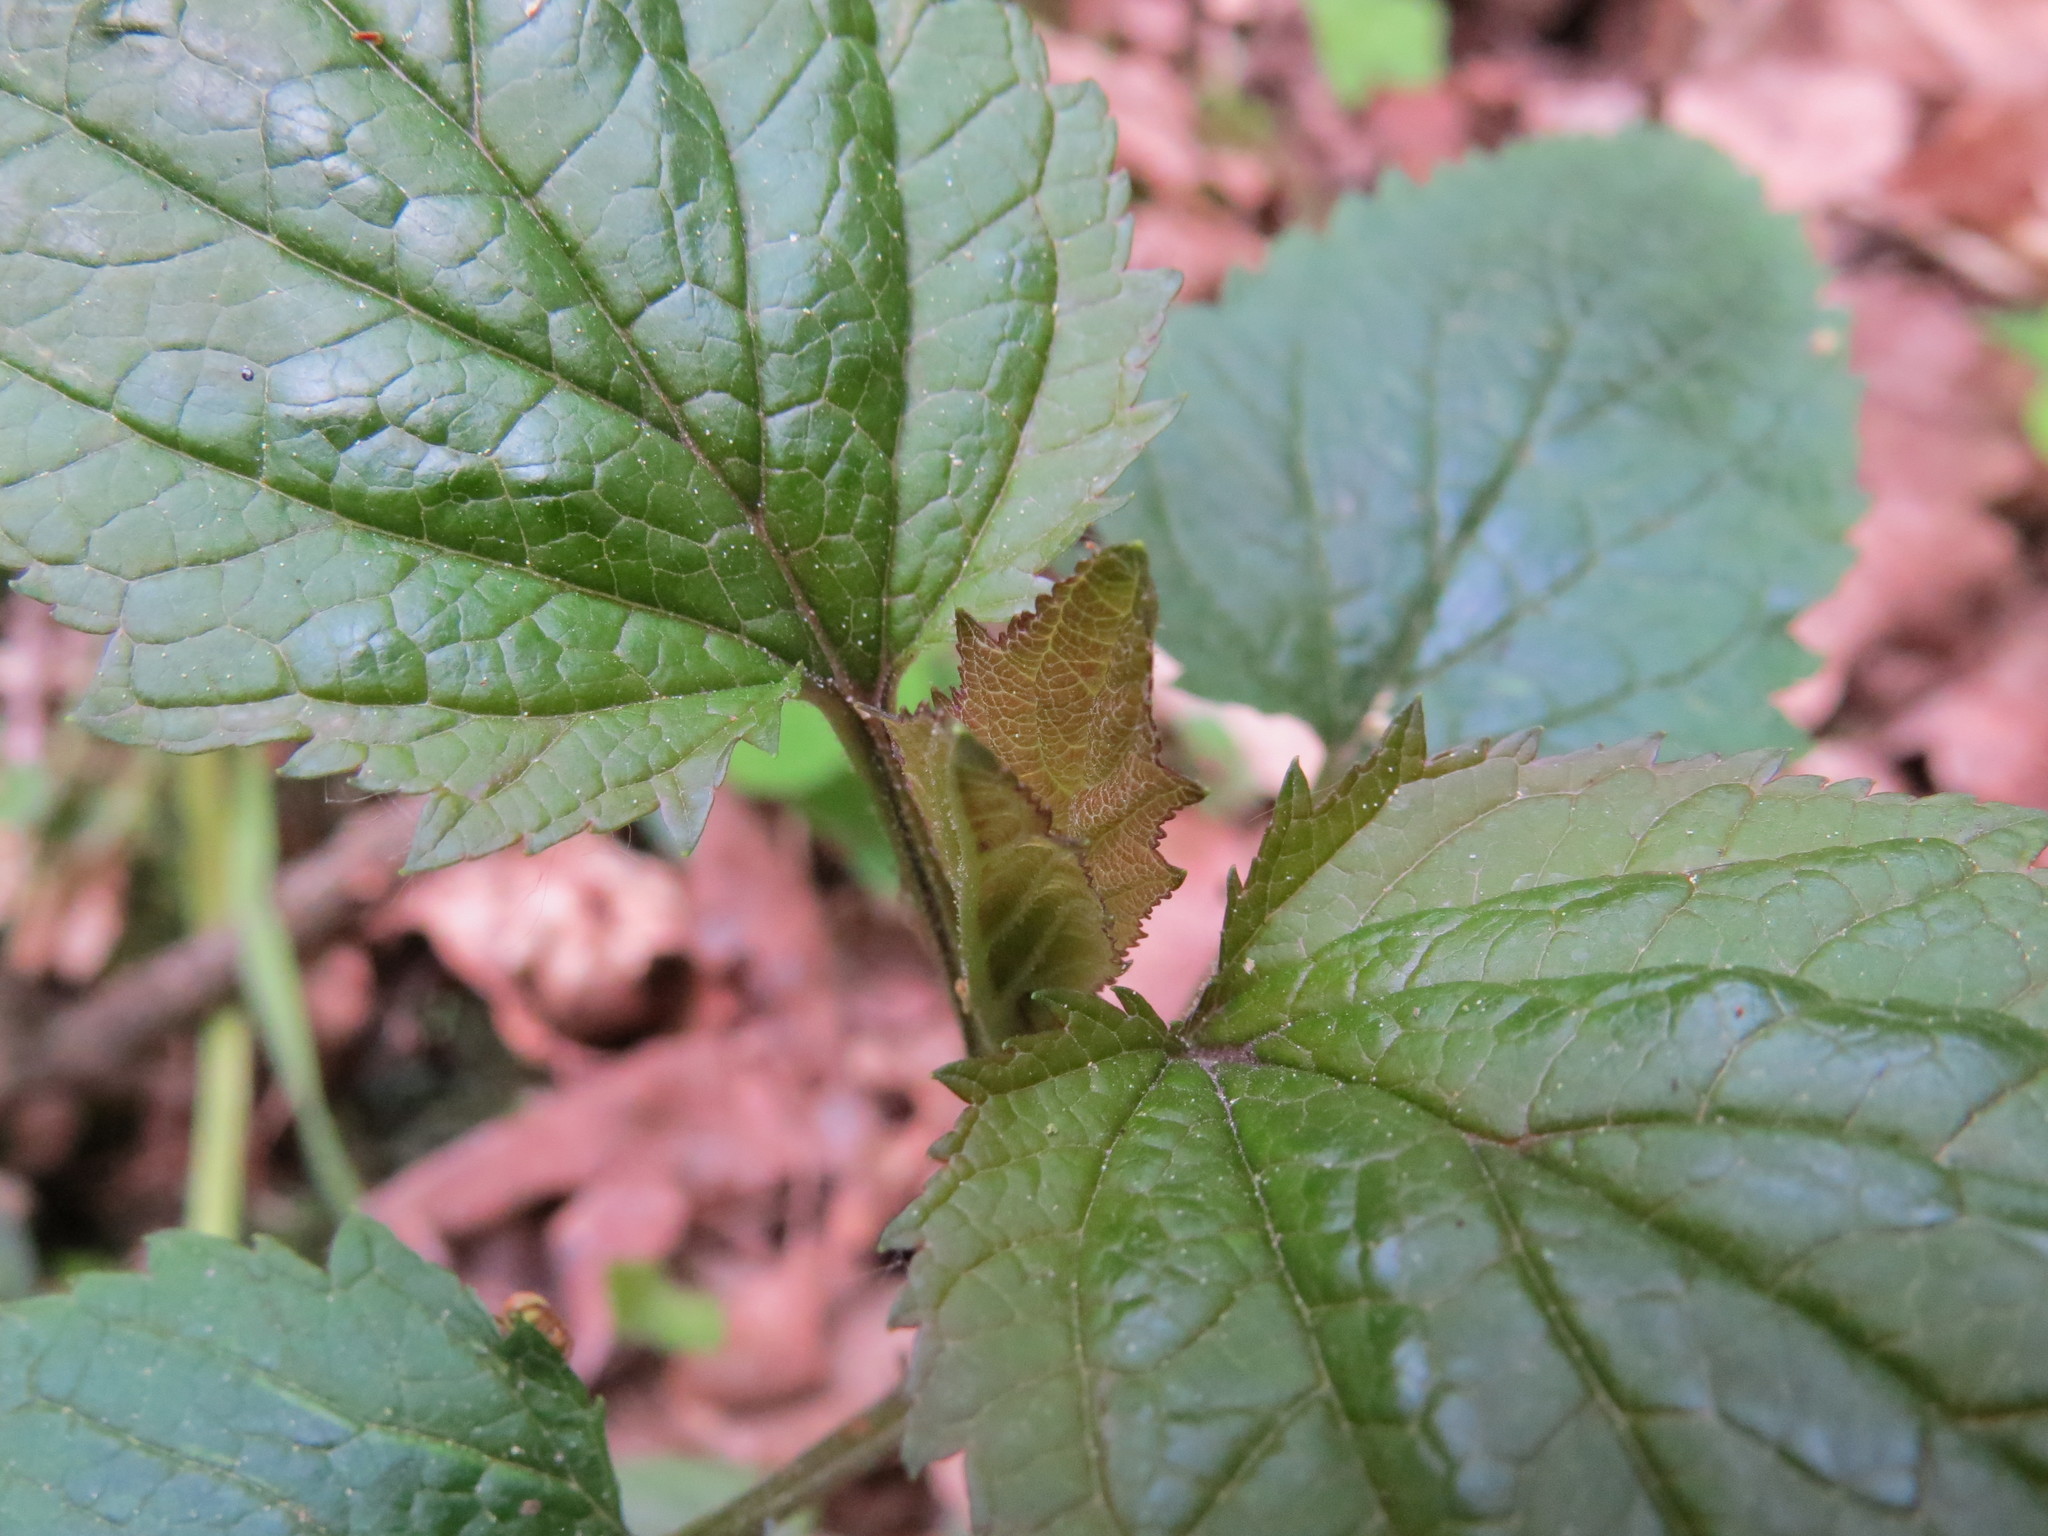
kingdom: Plantae
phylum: Tracheophyta
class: Magnoliopsida
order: Lamiales
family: Scrophulariaceae
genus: Scrophularia
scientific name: Scrophularia nodosa
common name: Common figwort
